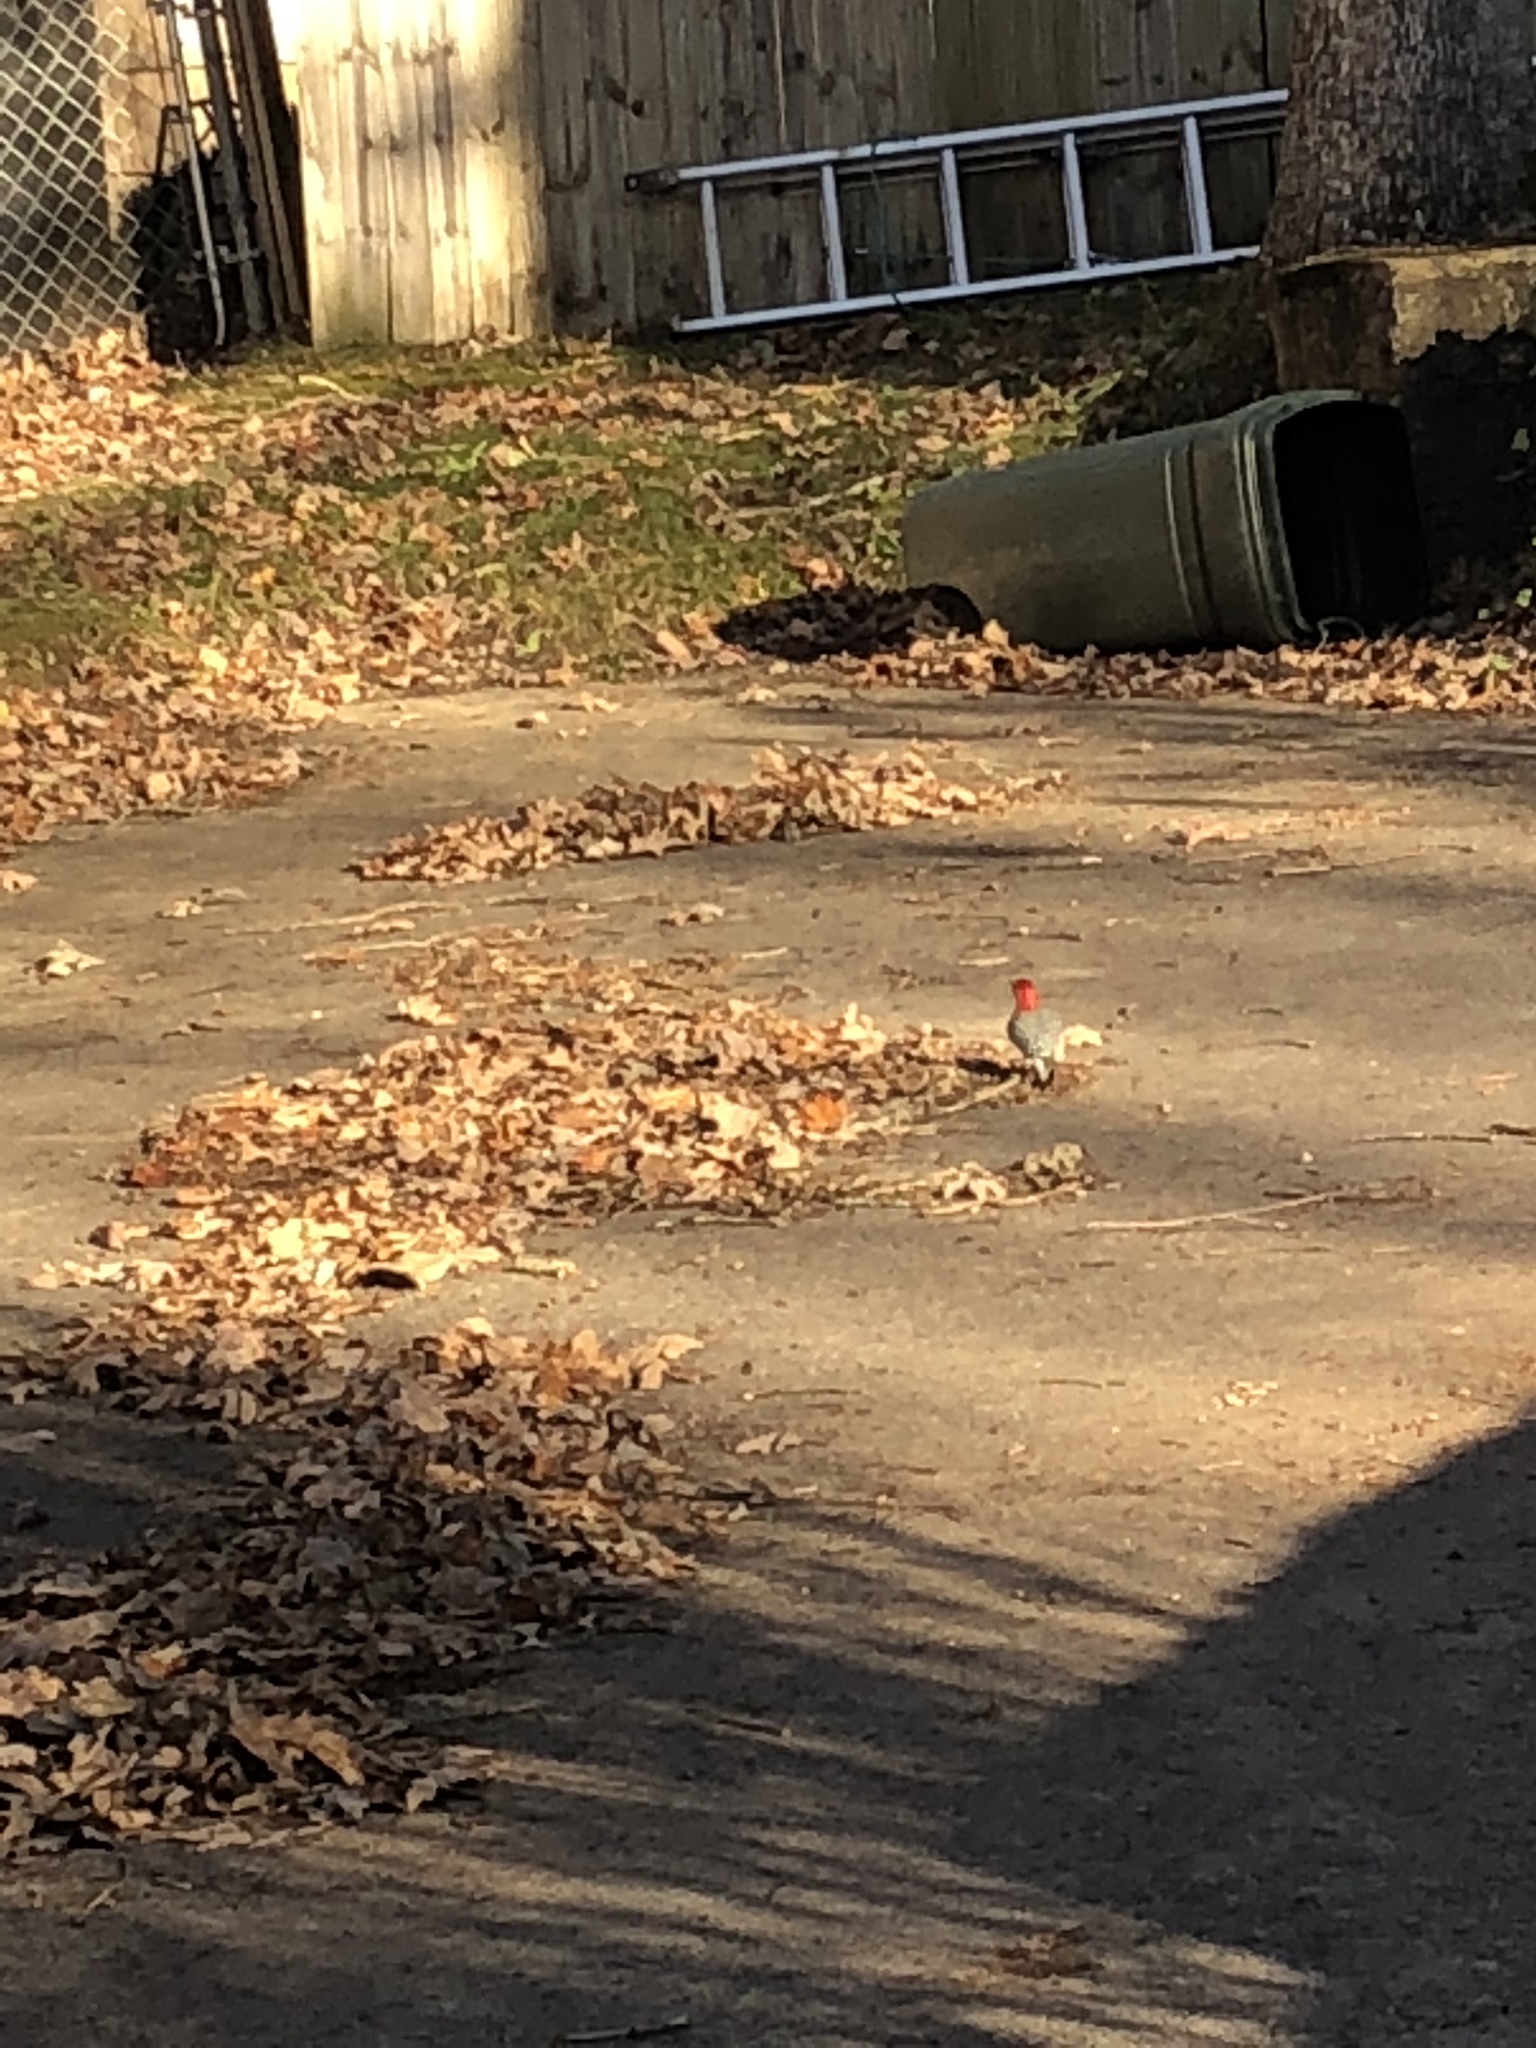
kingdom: Animalia
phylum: Chordata
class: Aves
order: Piciformes
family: Picidae
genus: Melanerpes
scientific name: Melanerpes carolinus
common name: Red-bellied woodpecker
